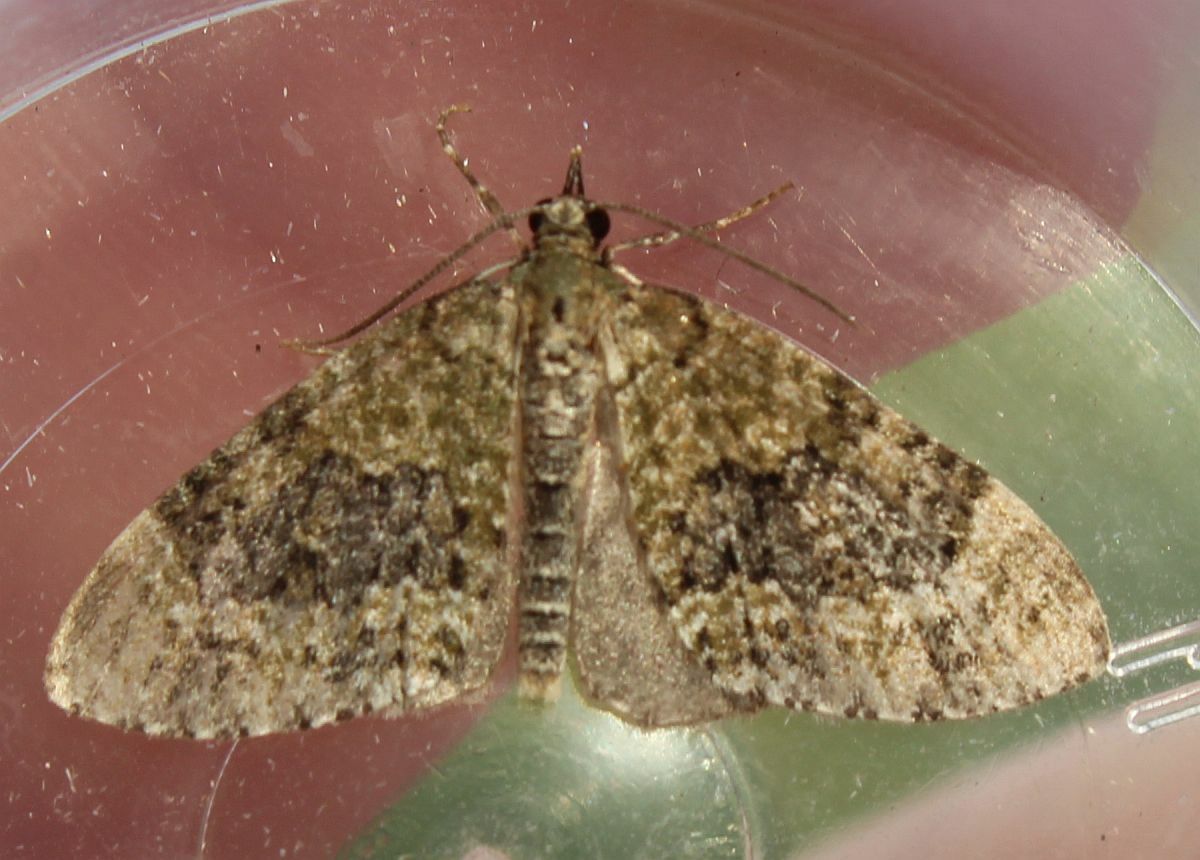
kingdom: Animalia
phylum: Arthropoda
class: Insecta
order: Lepidoptera
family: Geometridae
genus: Acasis
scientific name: Acasis viretata
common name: Yellow-barred brindle
